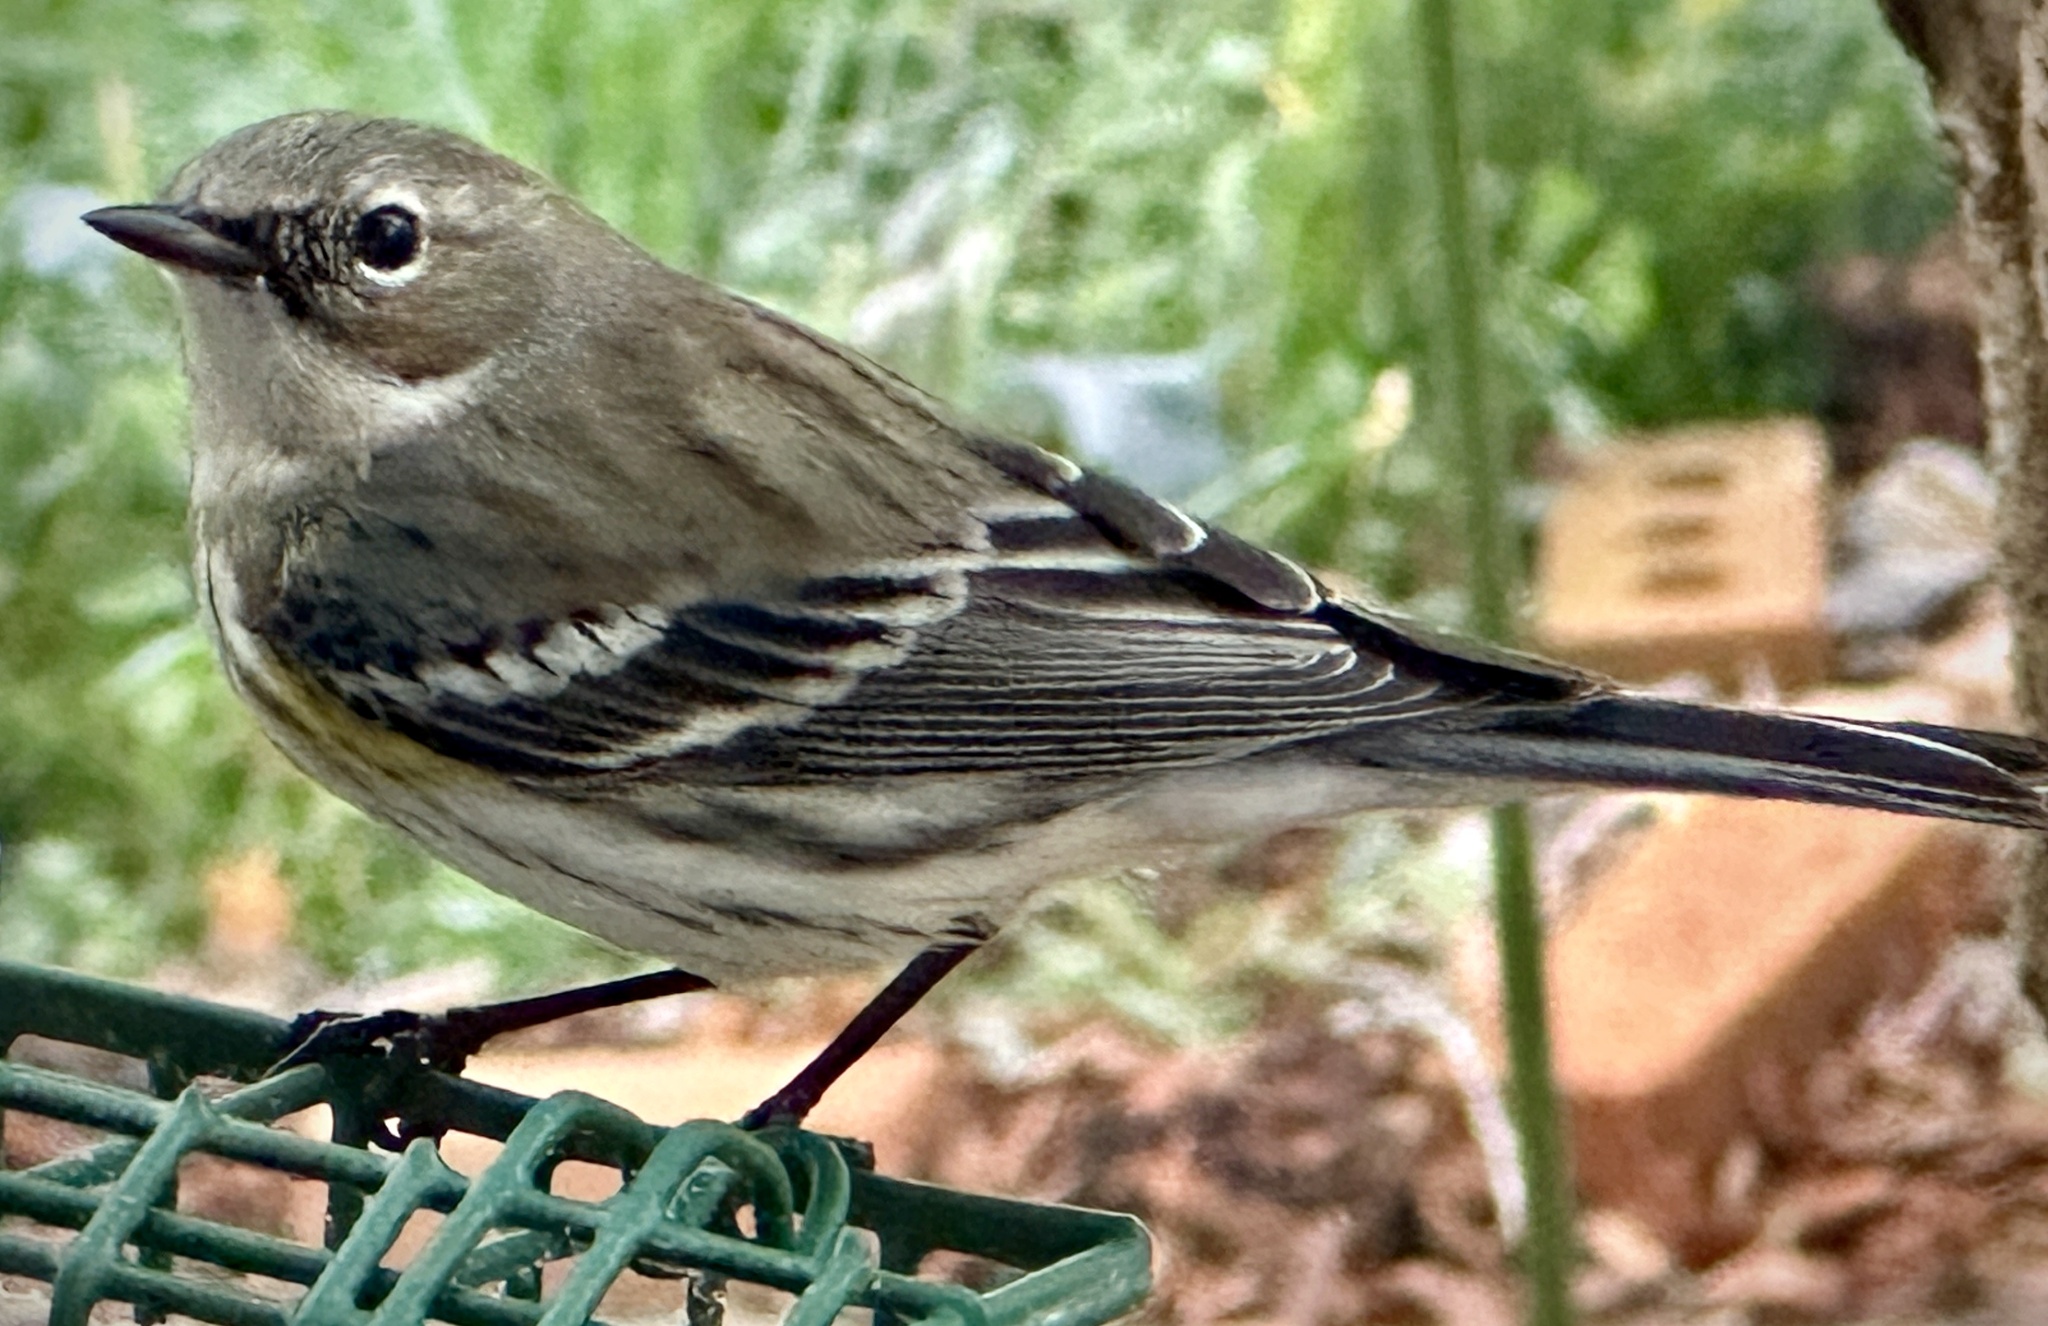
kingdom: Animalia
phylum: Chordata
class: Aves
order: Passeriformes
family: Parulidae
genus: Setophaga
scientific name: Setophaga coronata
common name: Myrtle warbler
